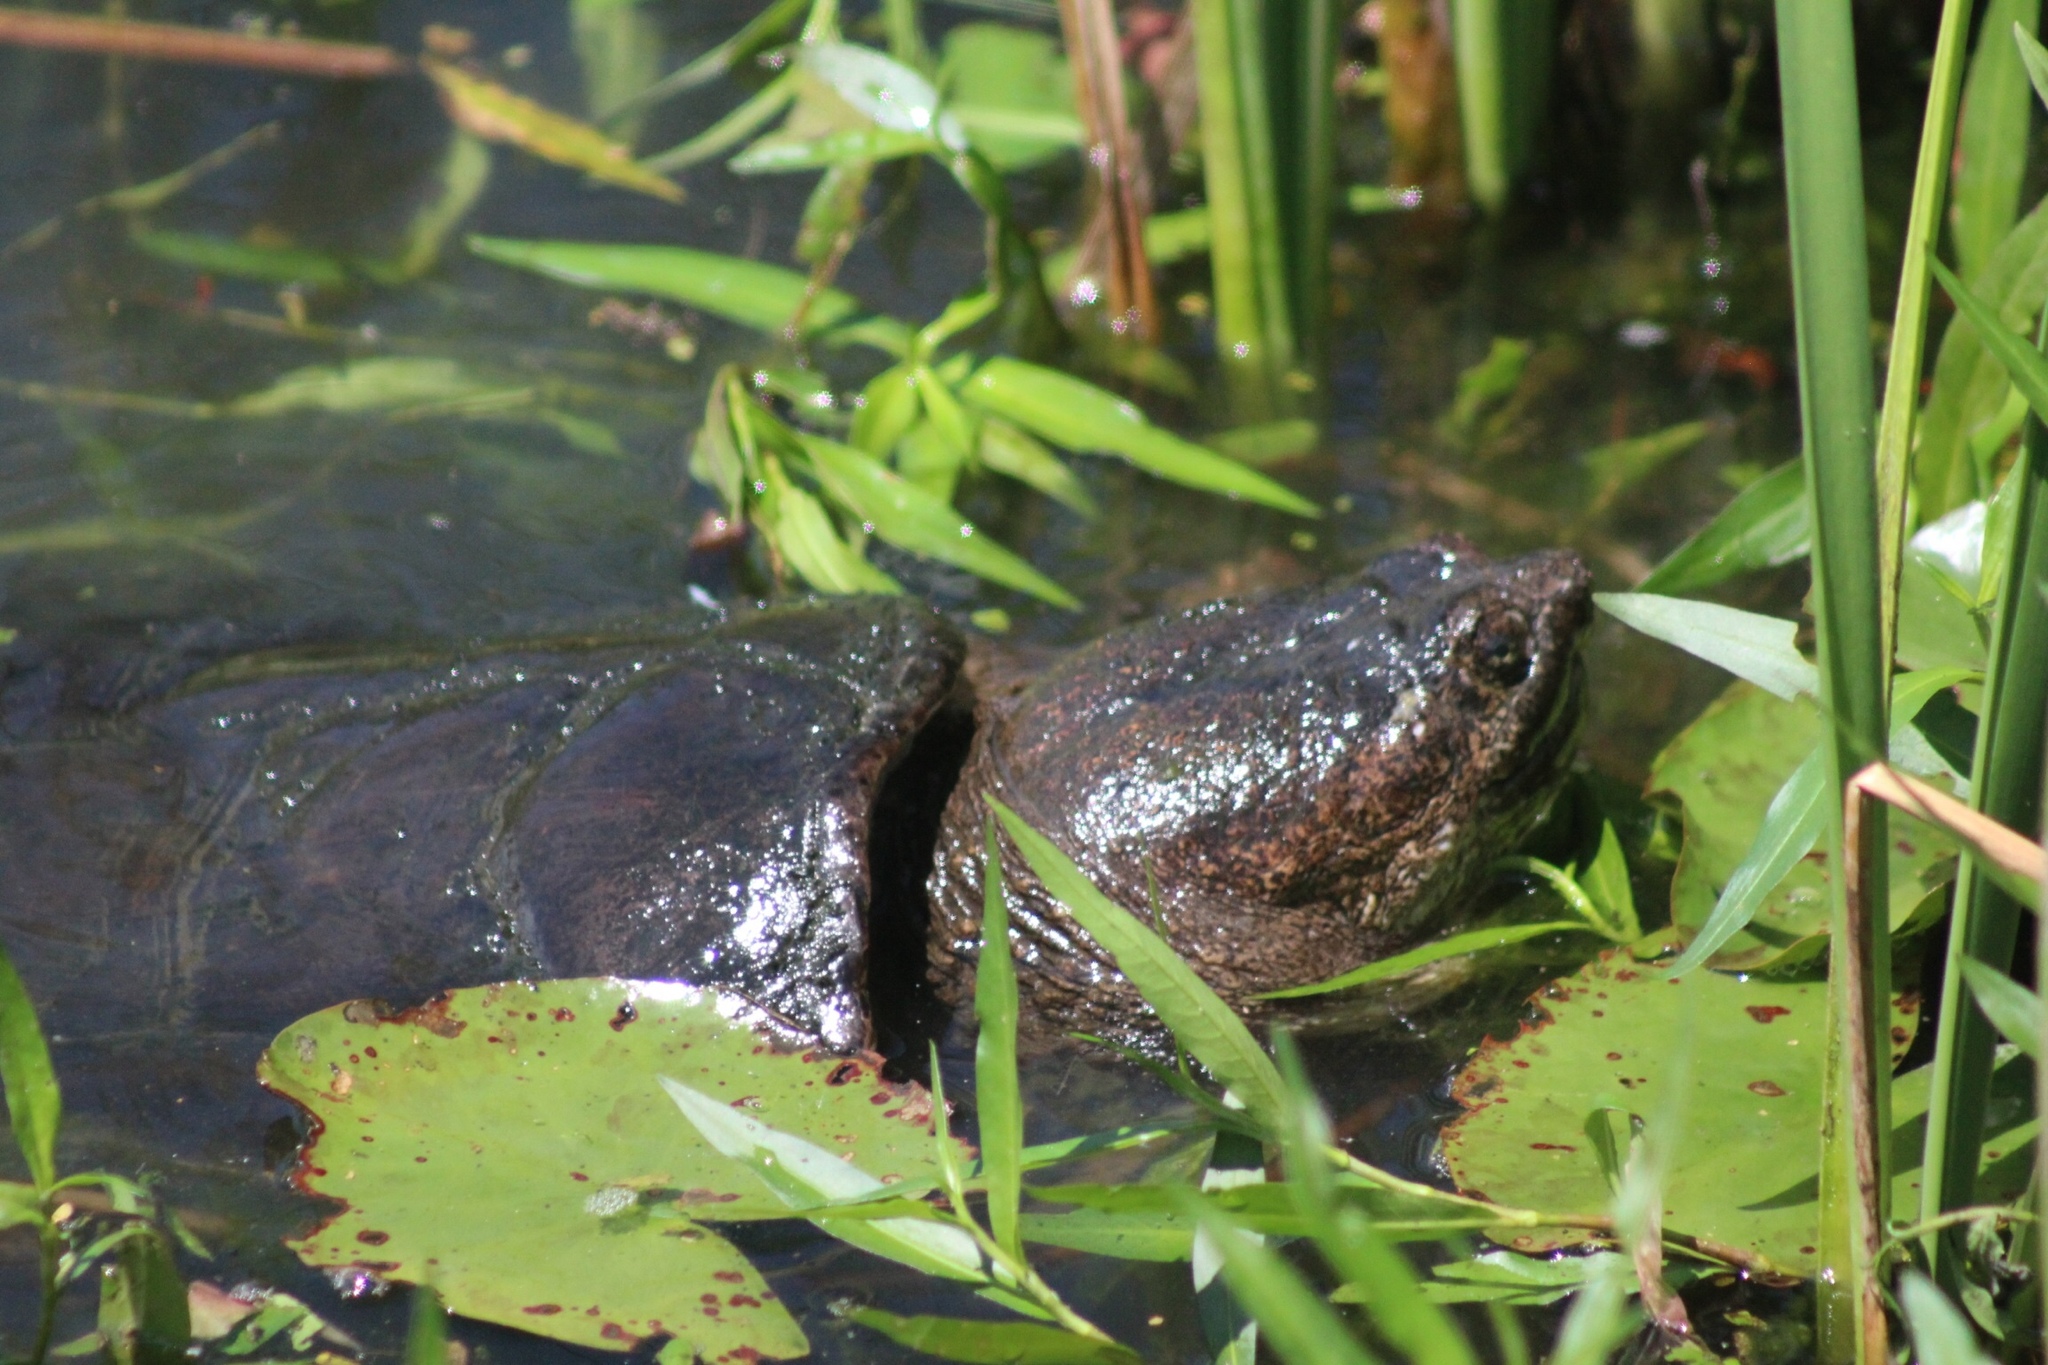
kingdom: Animalia
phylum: Chordata
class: Testudines
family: Chelydridae
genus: Chelydra
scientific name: Chelydra serpentina
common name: Common snapping turtle
